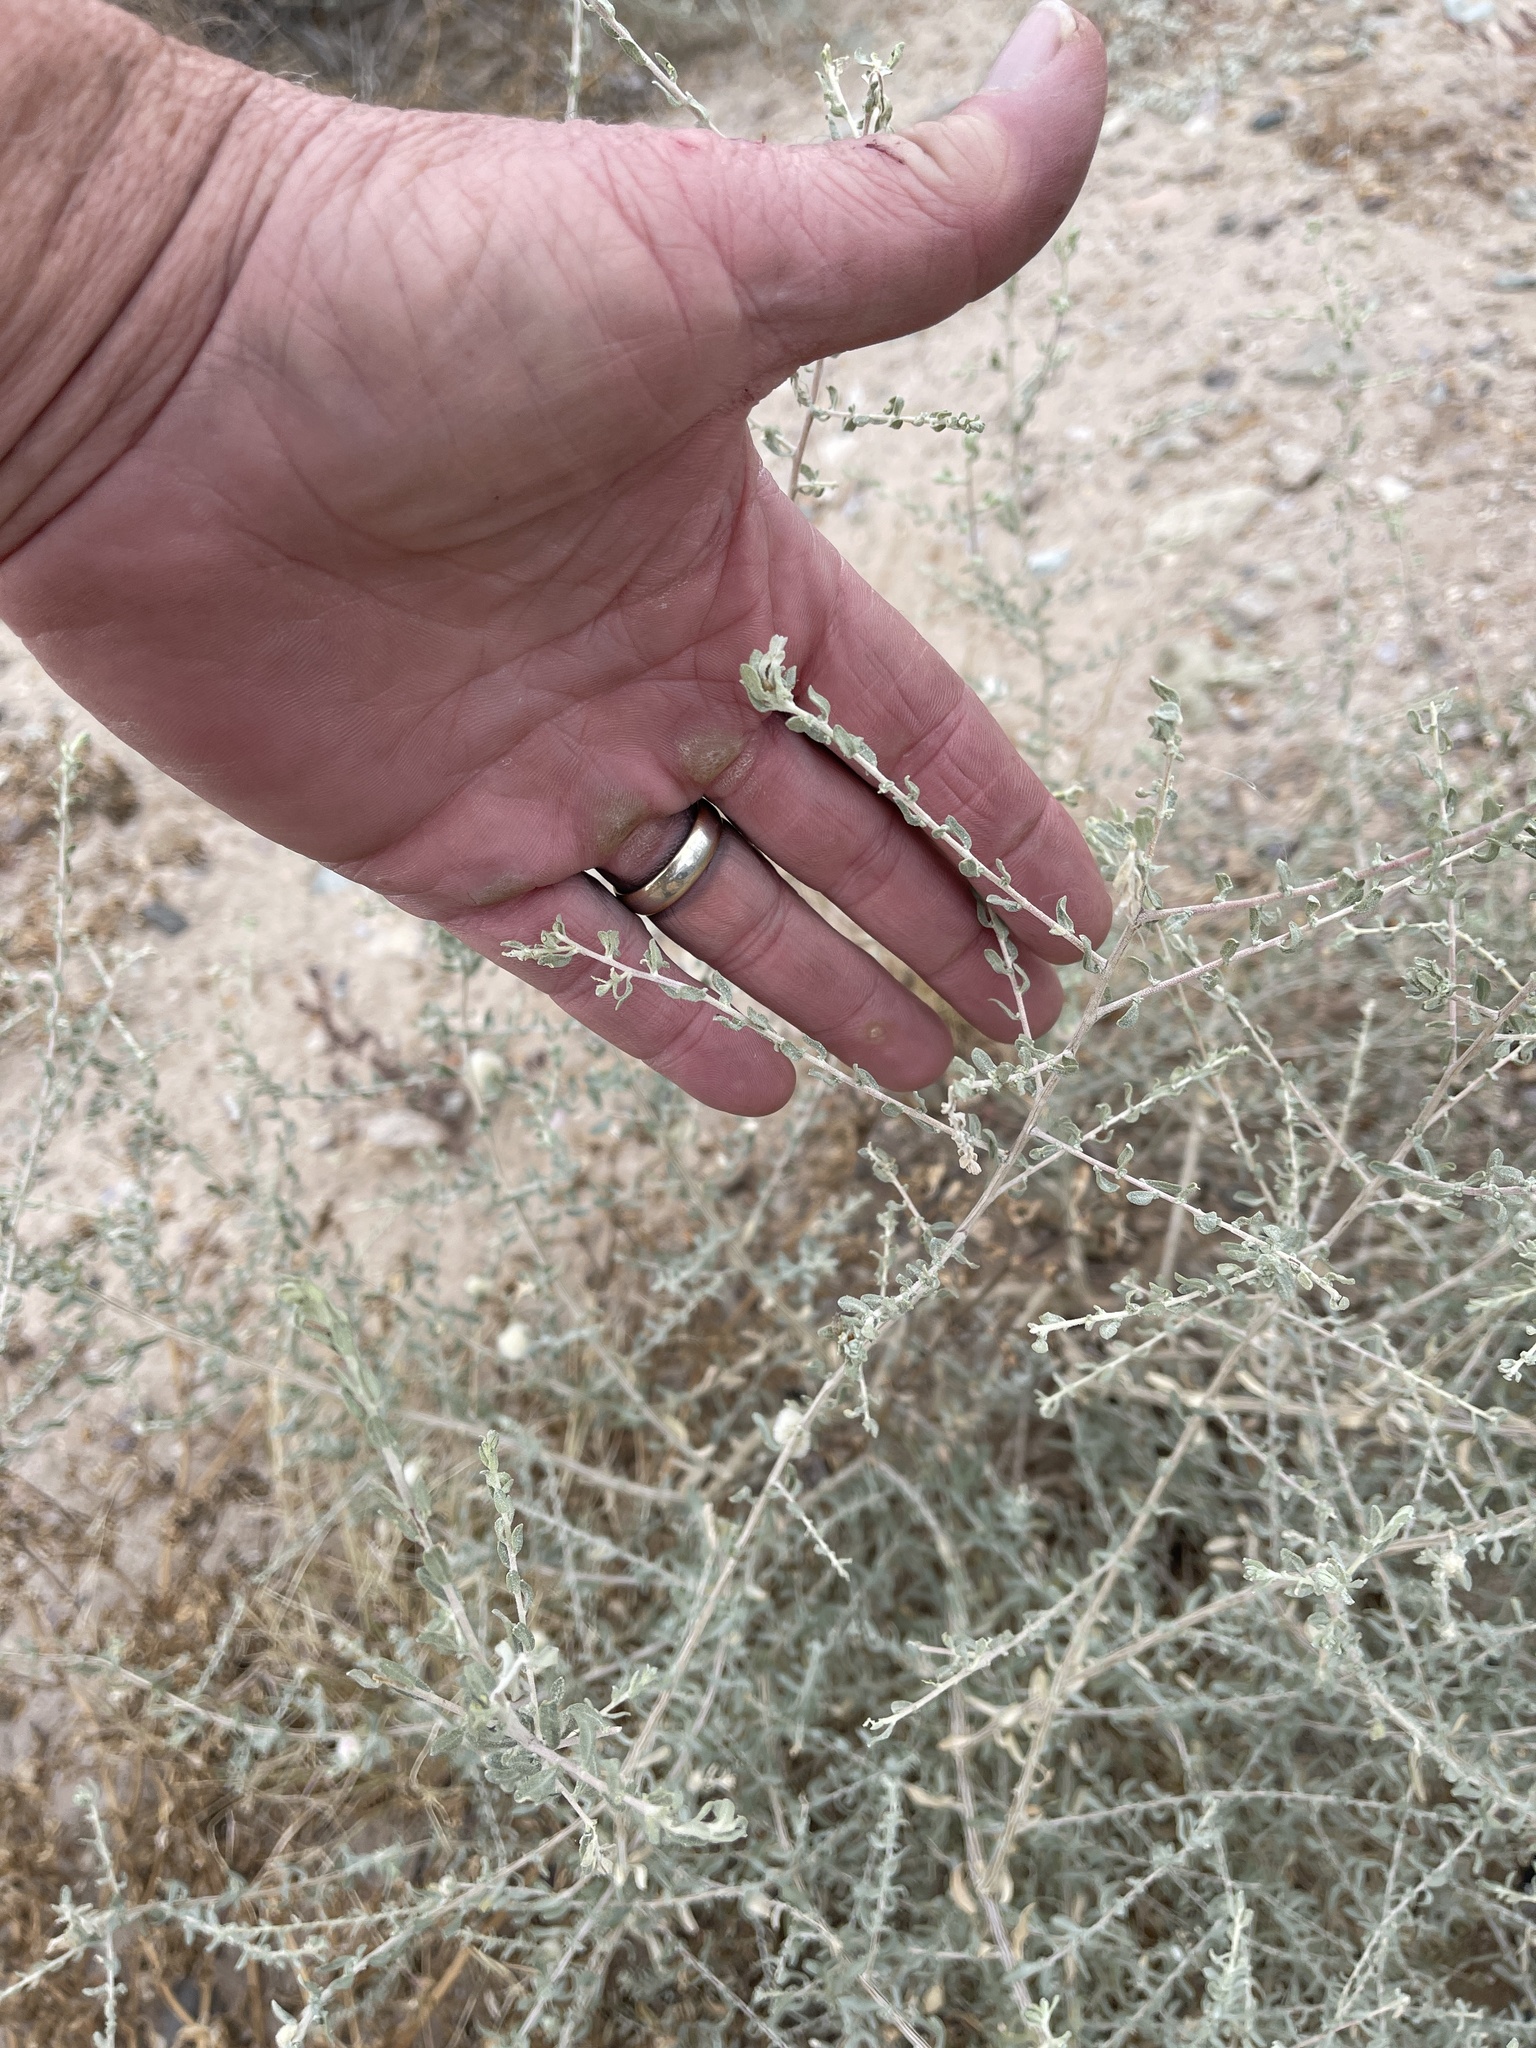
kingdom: Animalia
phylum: Arthropoda
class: Insecta
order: Diptera
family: Cecidomyiidae
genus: Asphondylia
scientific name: Asphondylia floccosa
